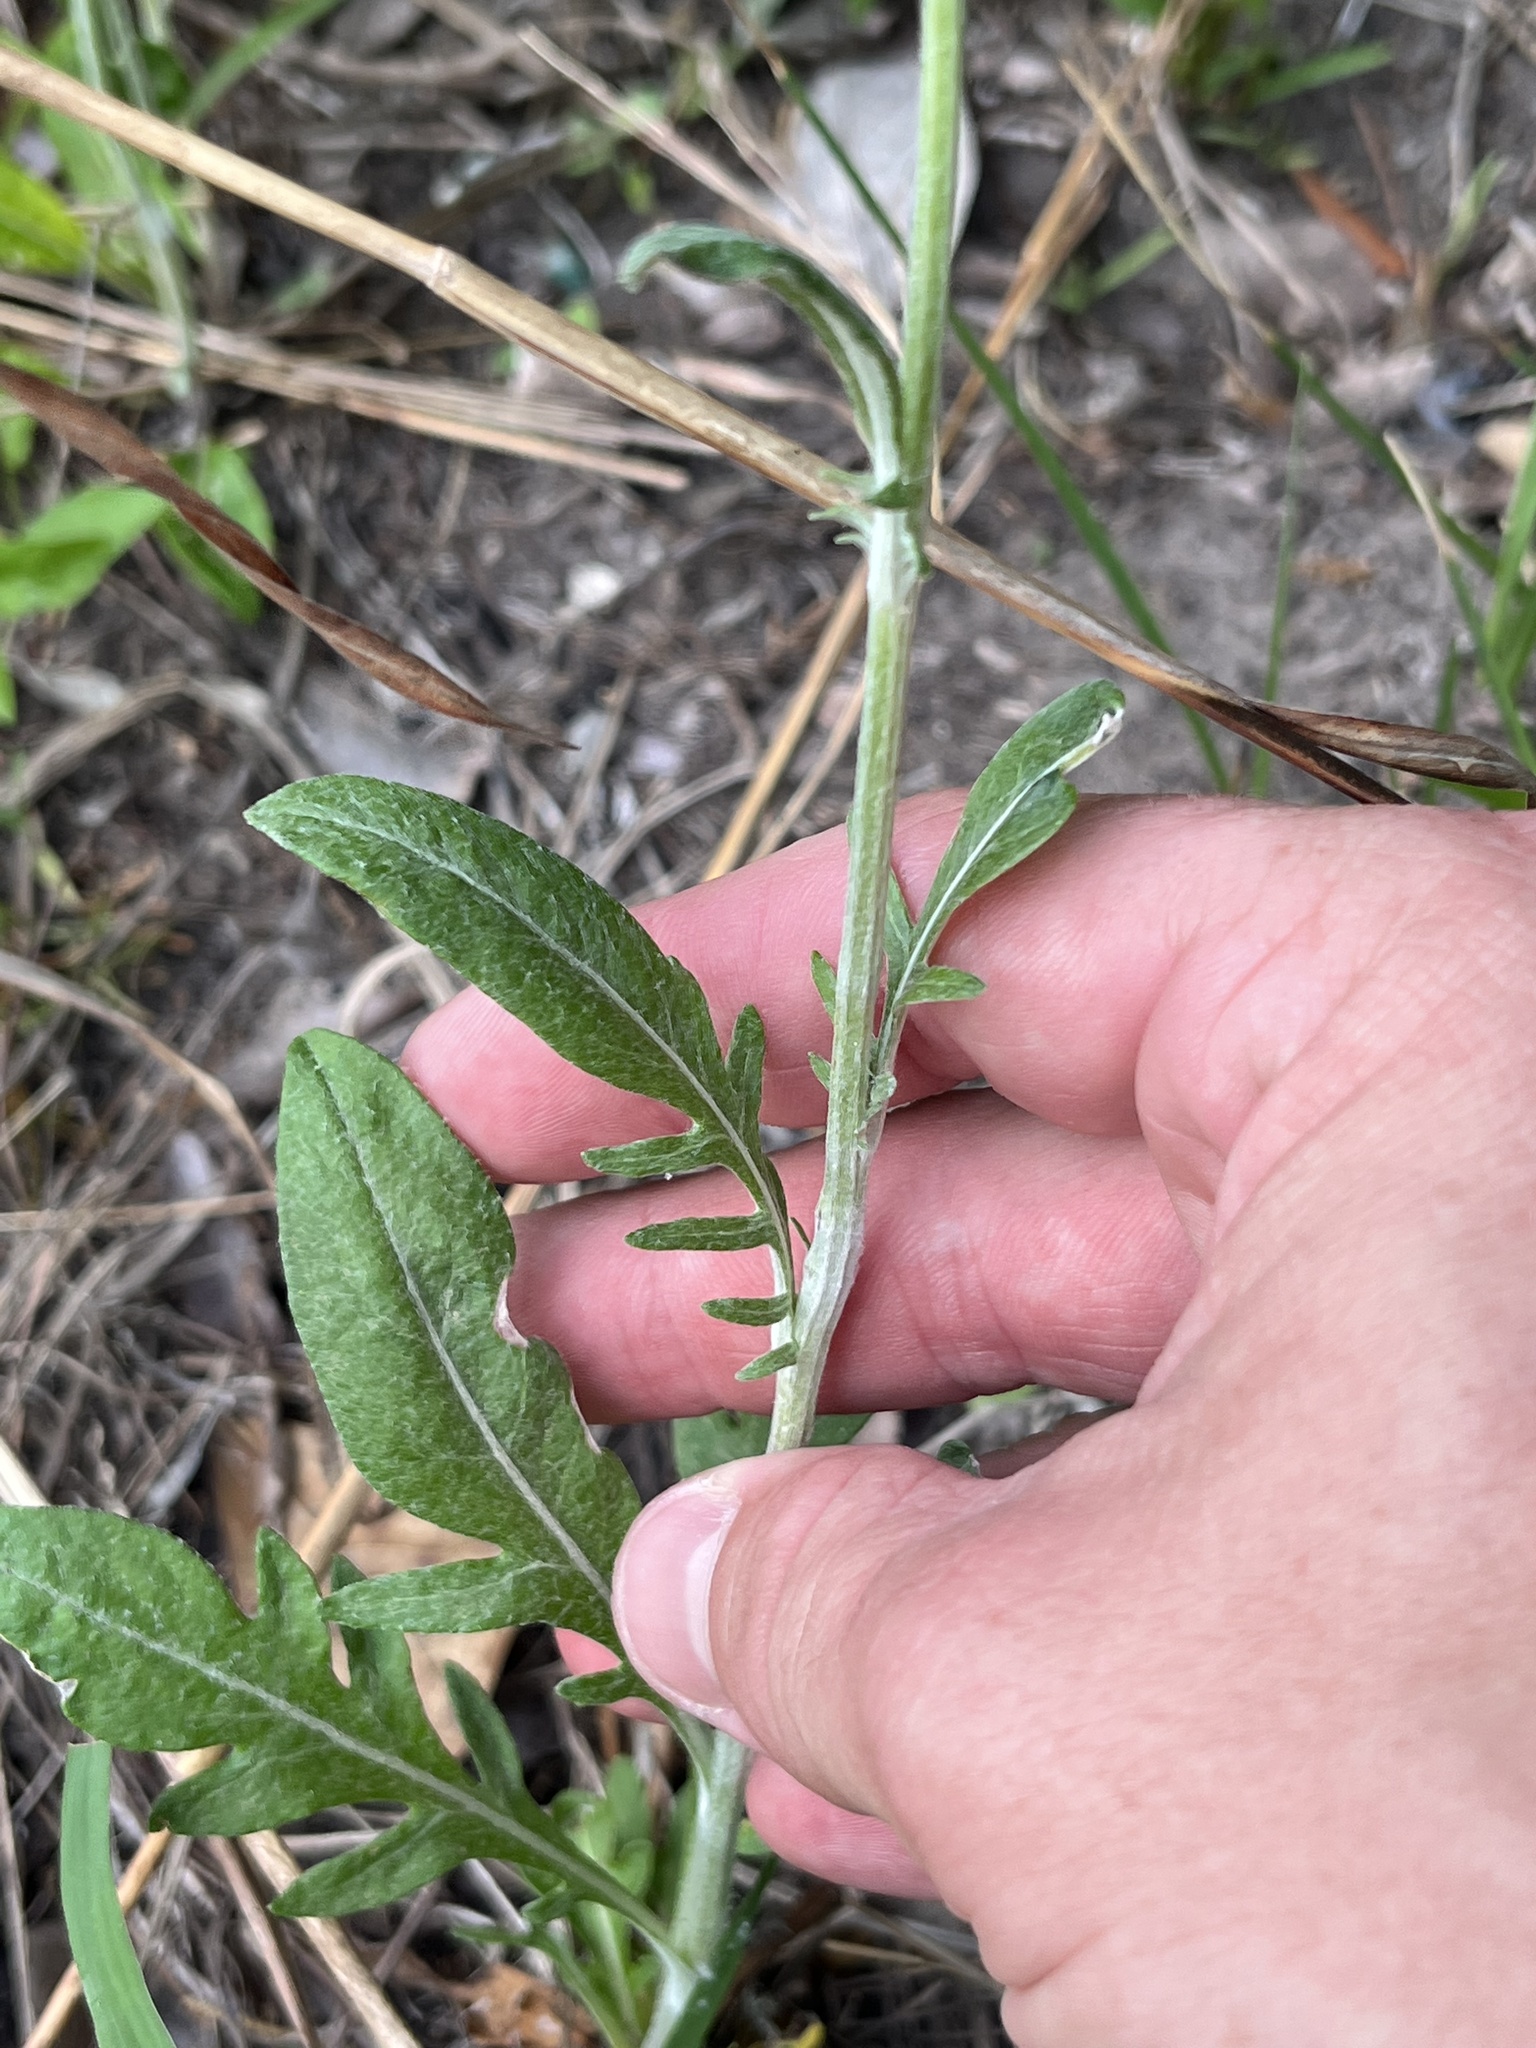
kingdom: Plantae
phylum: Tracheophyta
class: Magnoliopsida
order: Asterales
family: Asteraceae
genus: Hymenopappus
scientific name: Hymenopappus artemisiifolius
